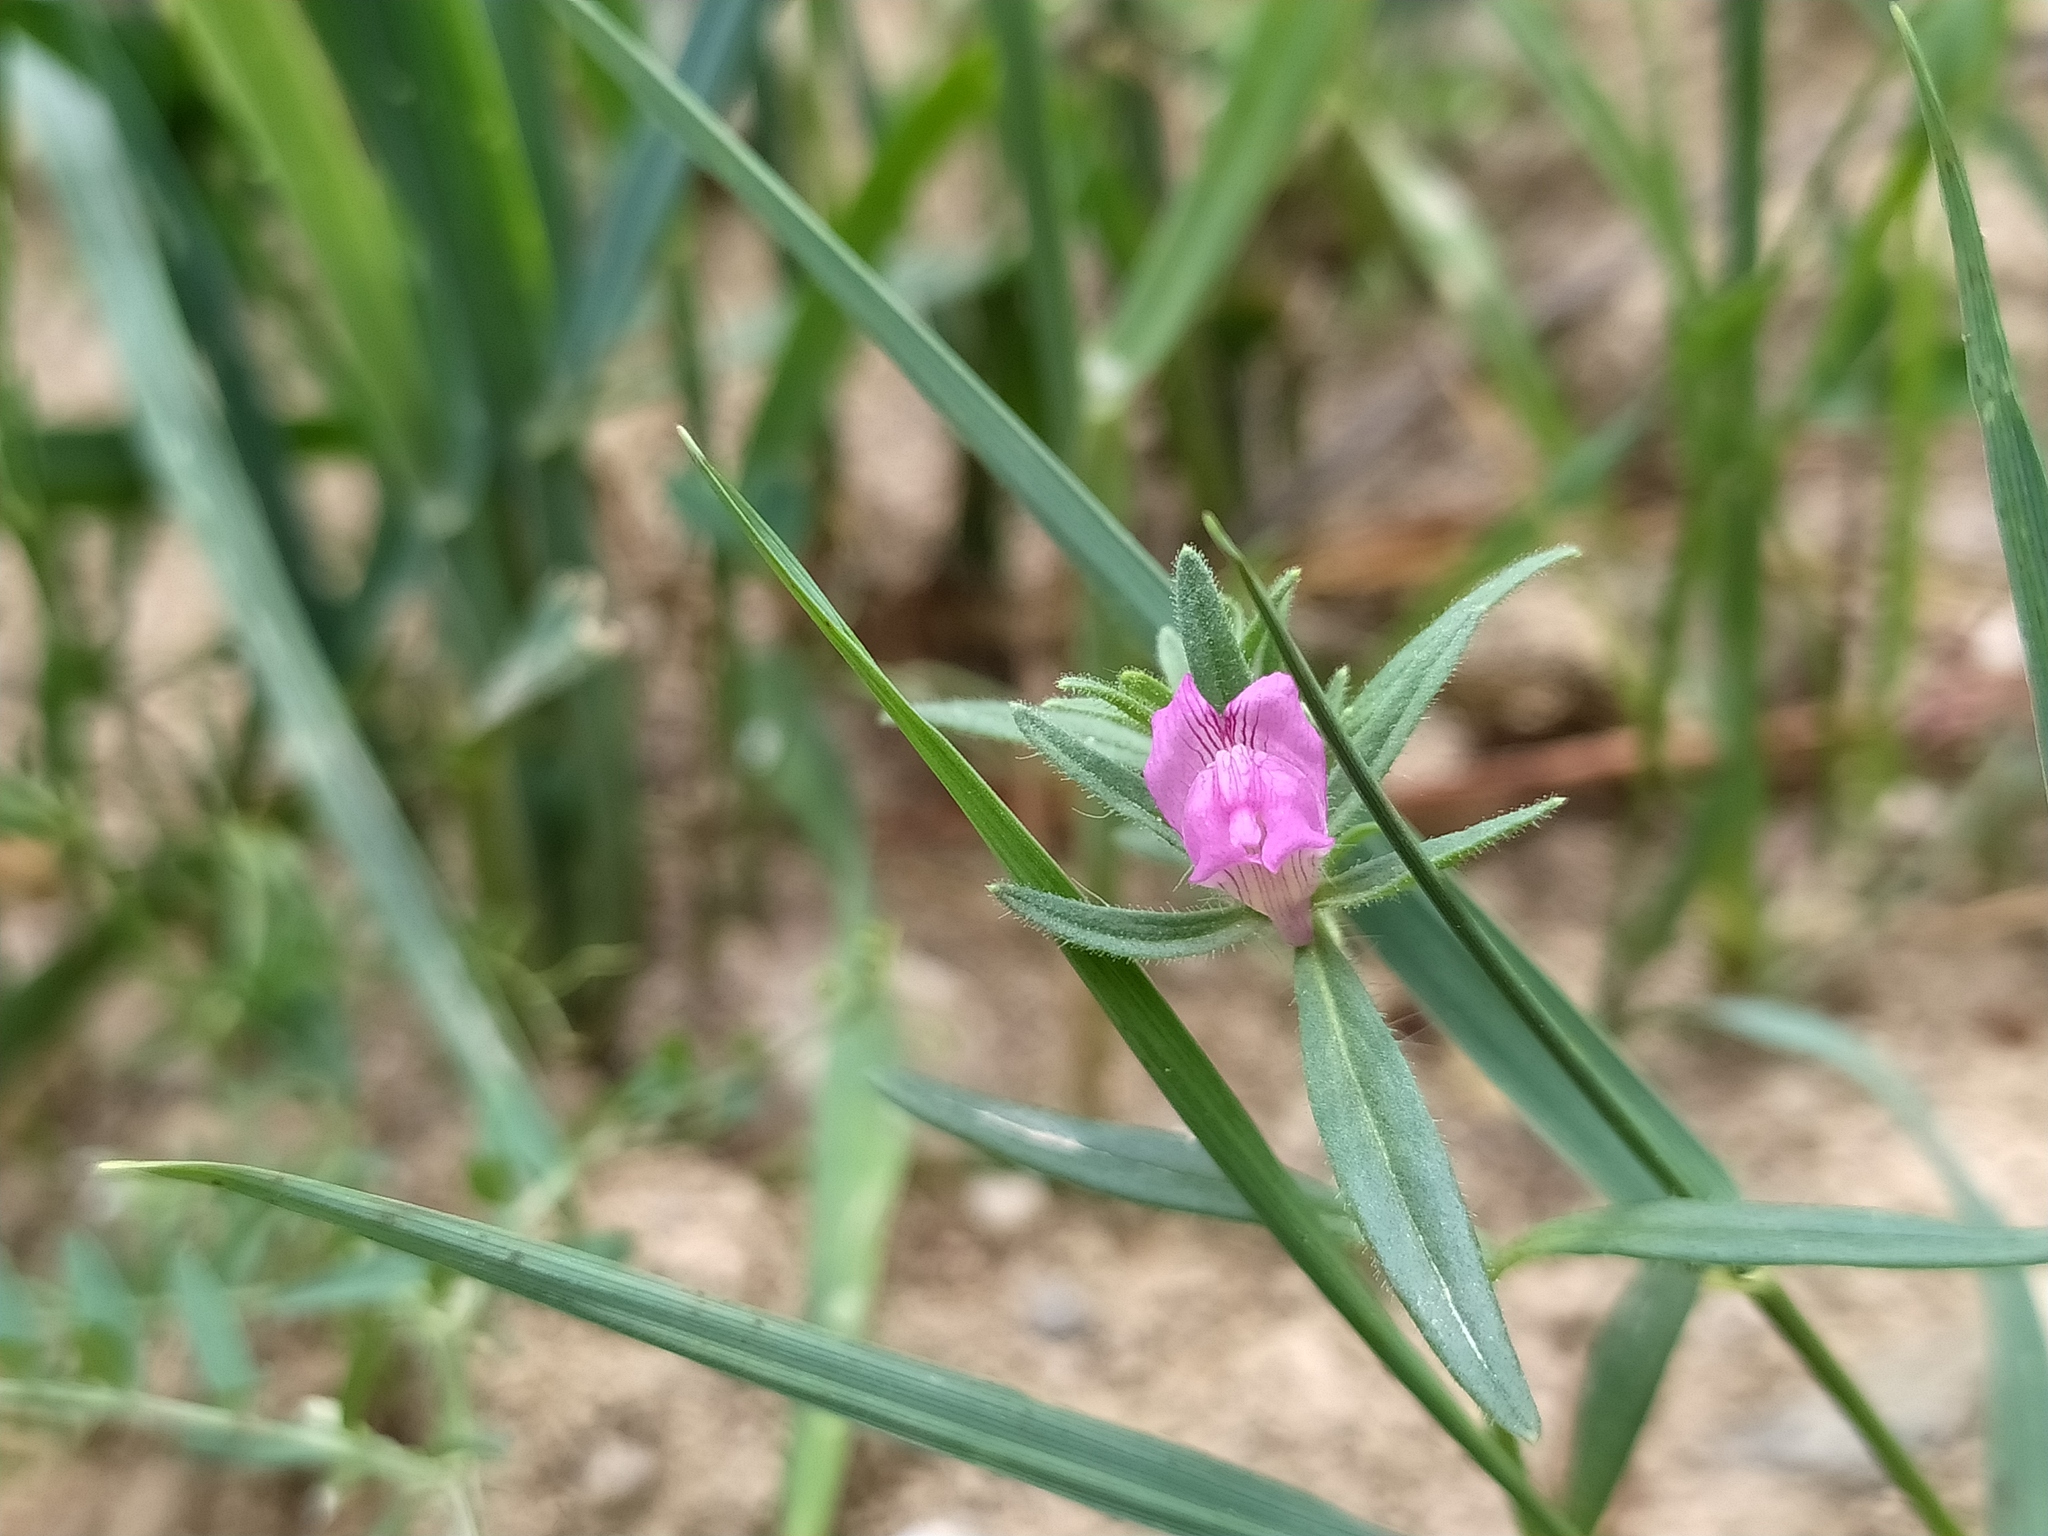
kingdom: Plantae
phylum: Tracheophyta
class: Magnoliopsida
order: Lamiales
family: Plantaginaceae
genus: Misopates
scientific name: Misopates orontium
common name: Weasel's-snout
